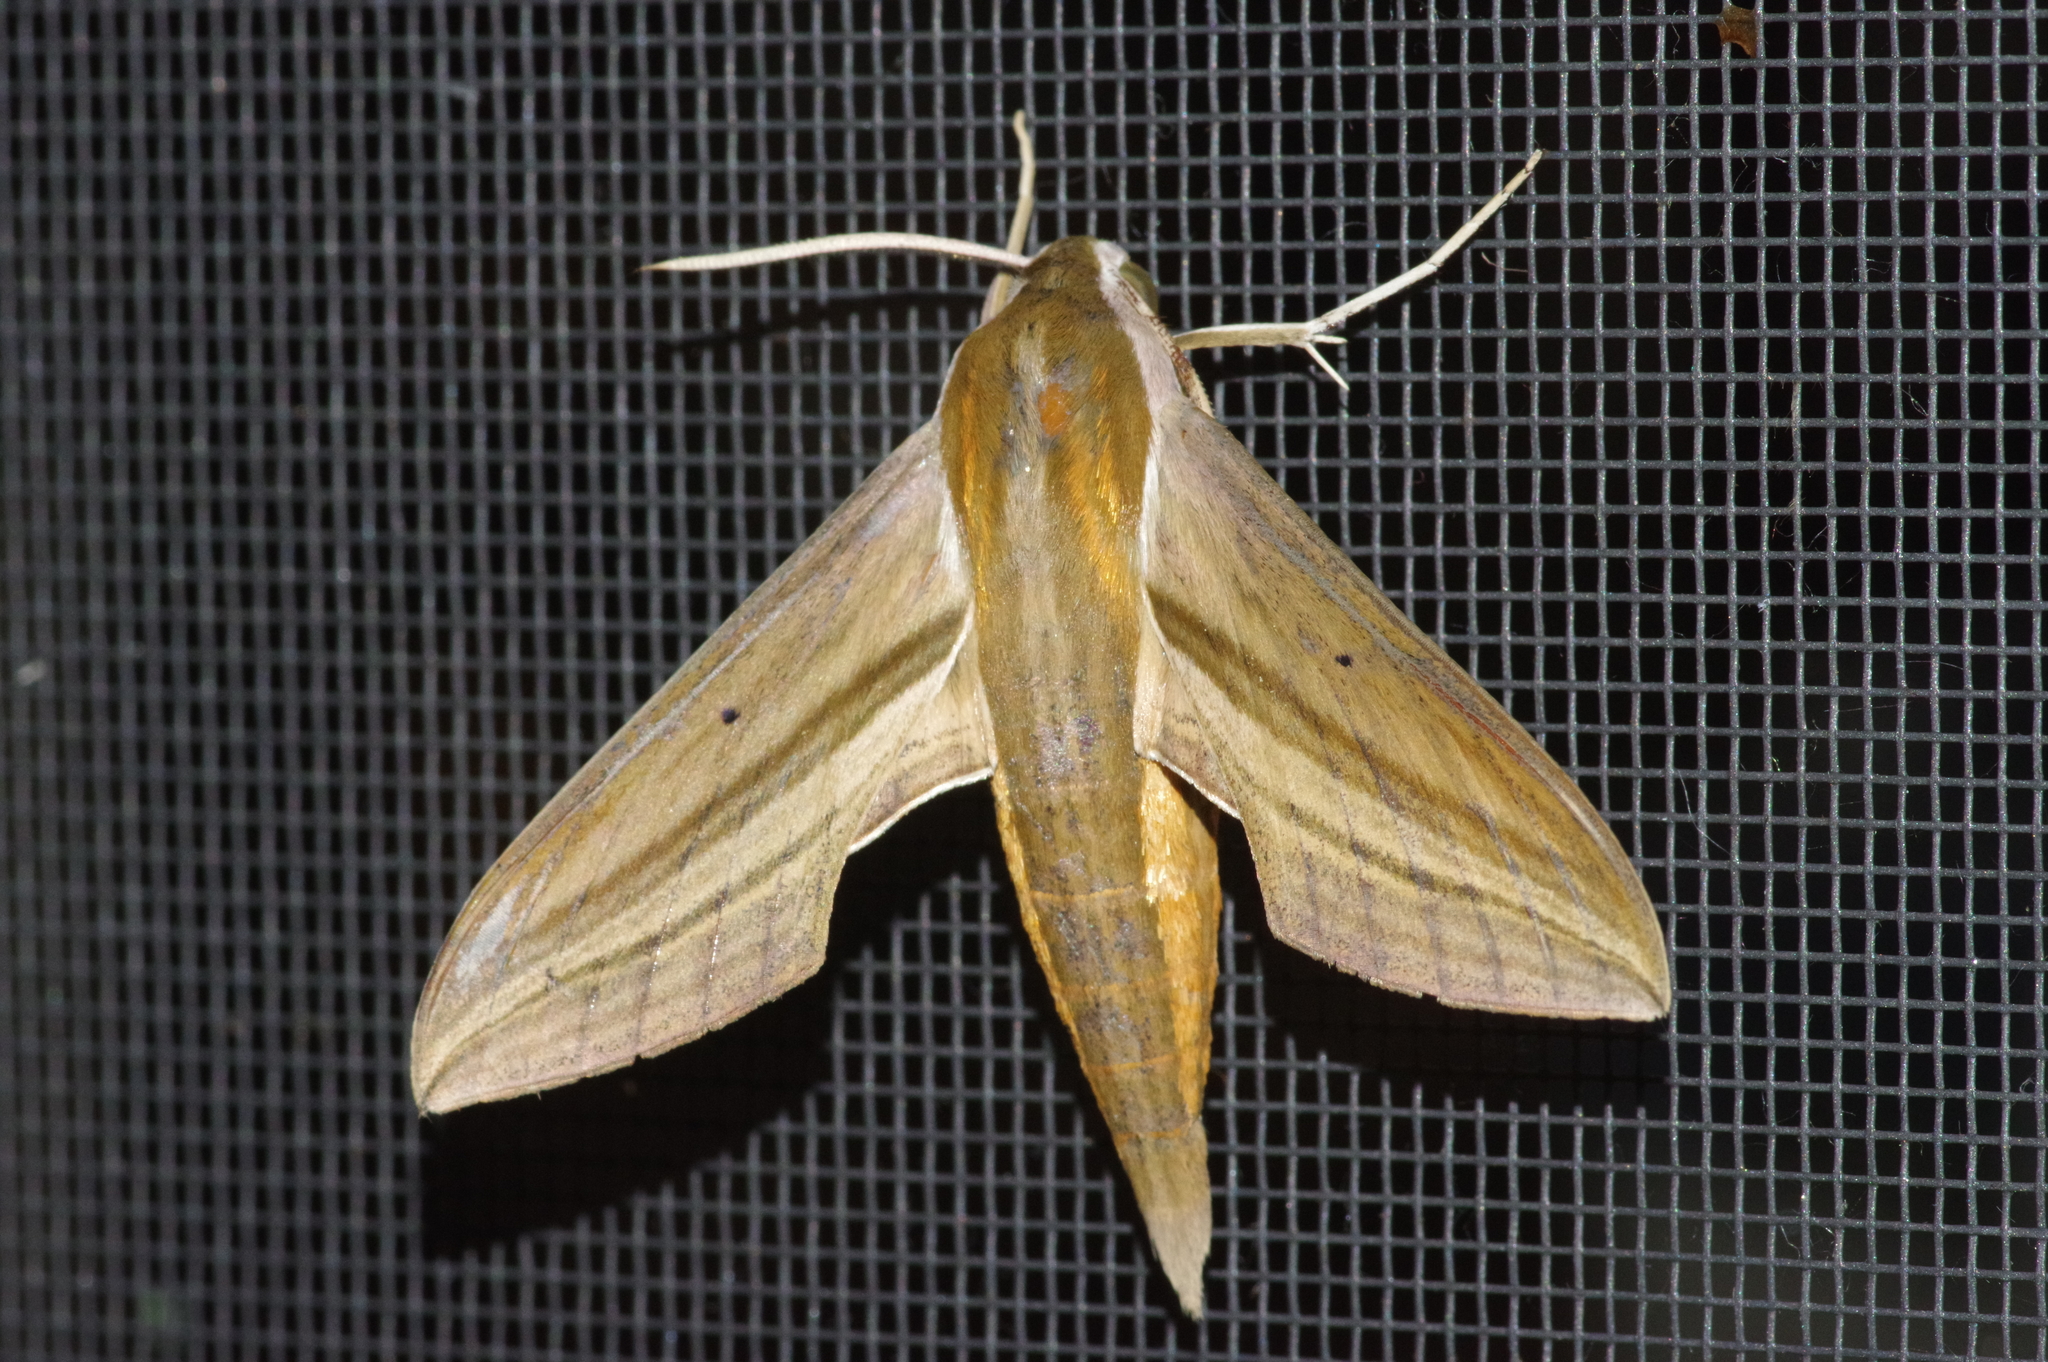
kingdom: Animalia
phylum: Arthropoda
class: Insecta
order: Lepidoptera
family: Sphingidae
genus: Theretra
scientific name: Theretra japonica
